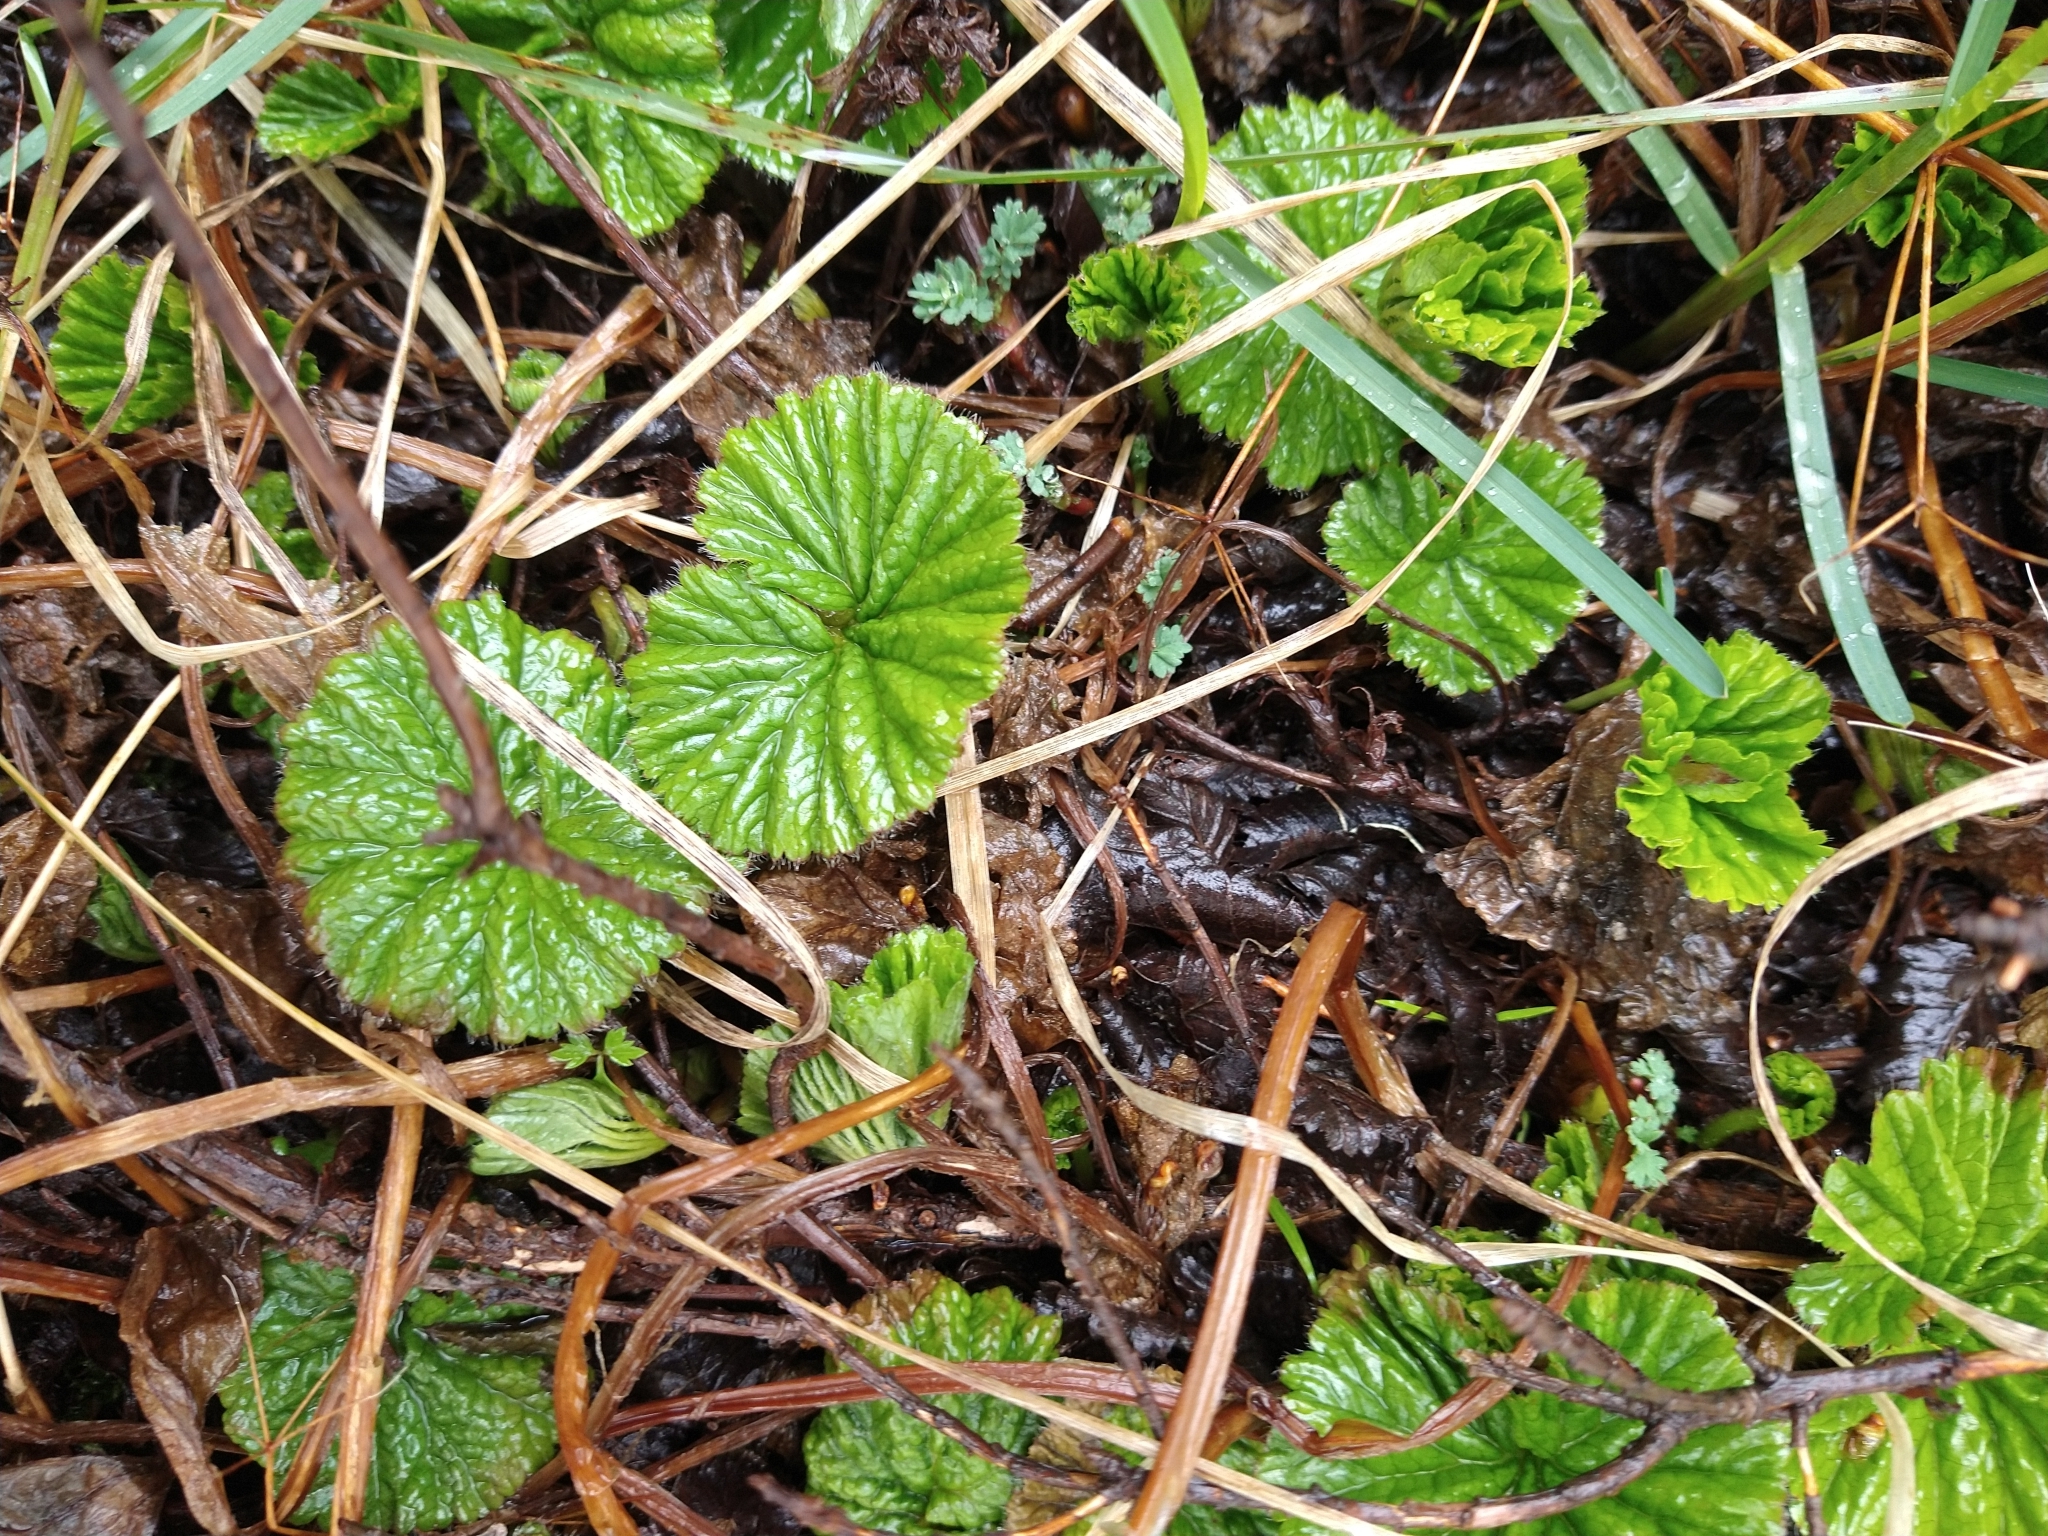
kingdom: Plantae
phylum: Tracheophyta
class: Magnoliopsida
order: Gunnerales
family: Gunneraceae
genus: Gunnera
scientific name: Gunnera magellanica
